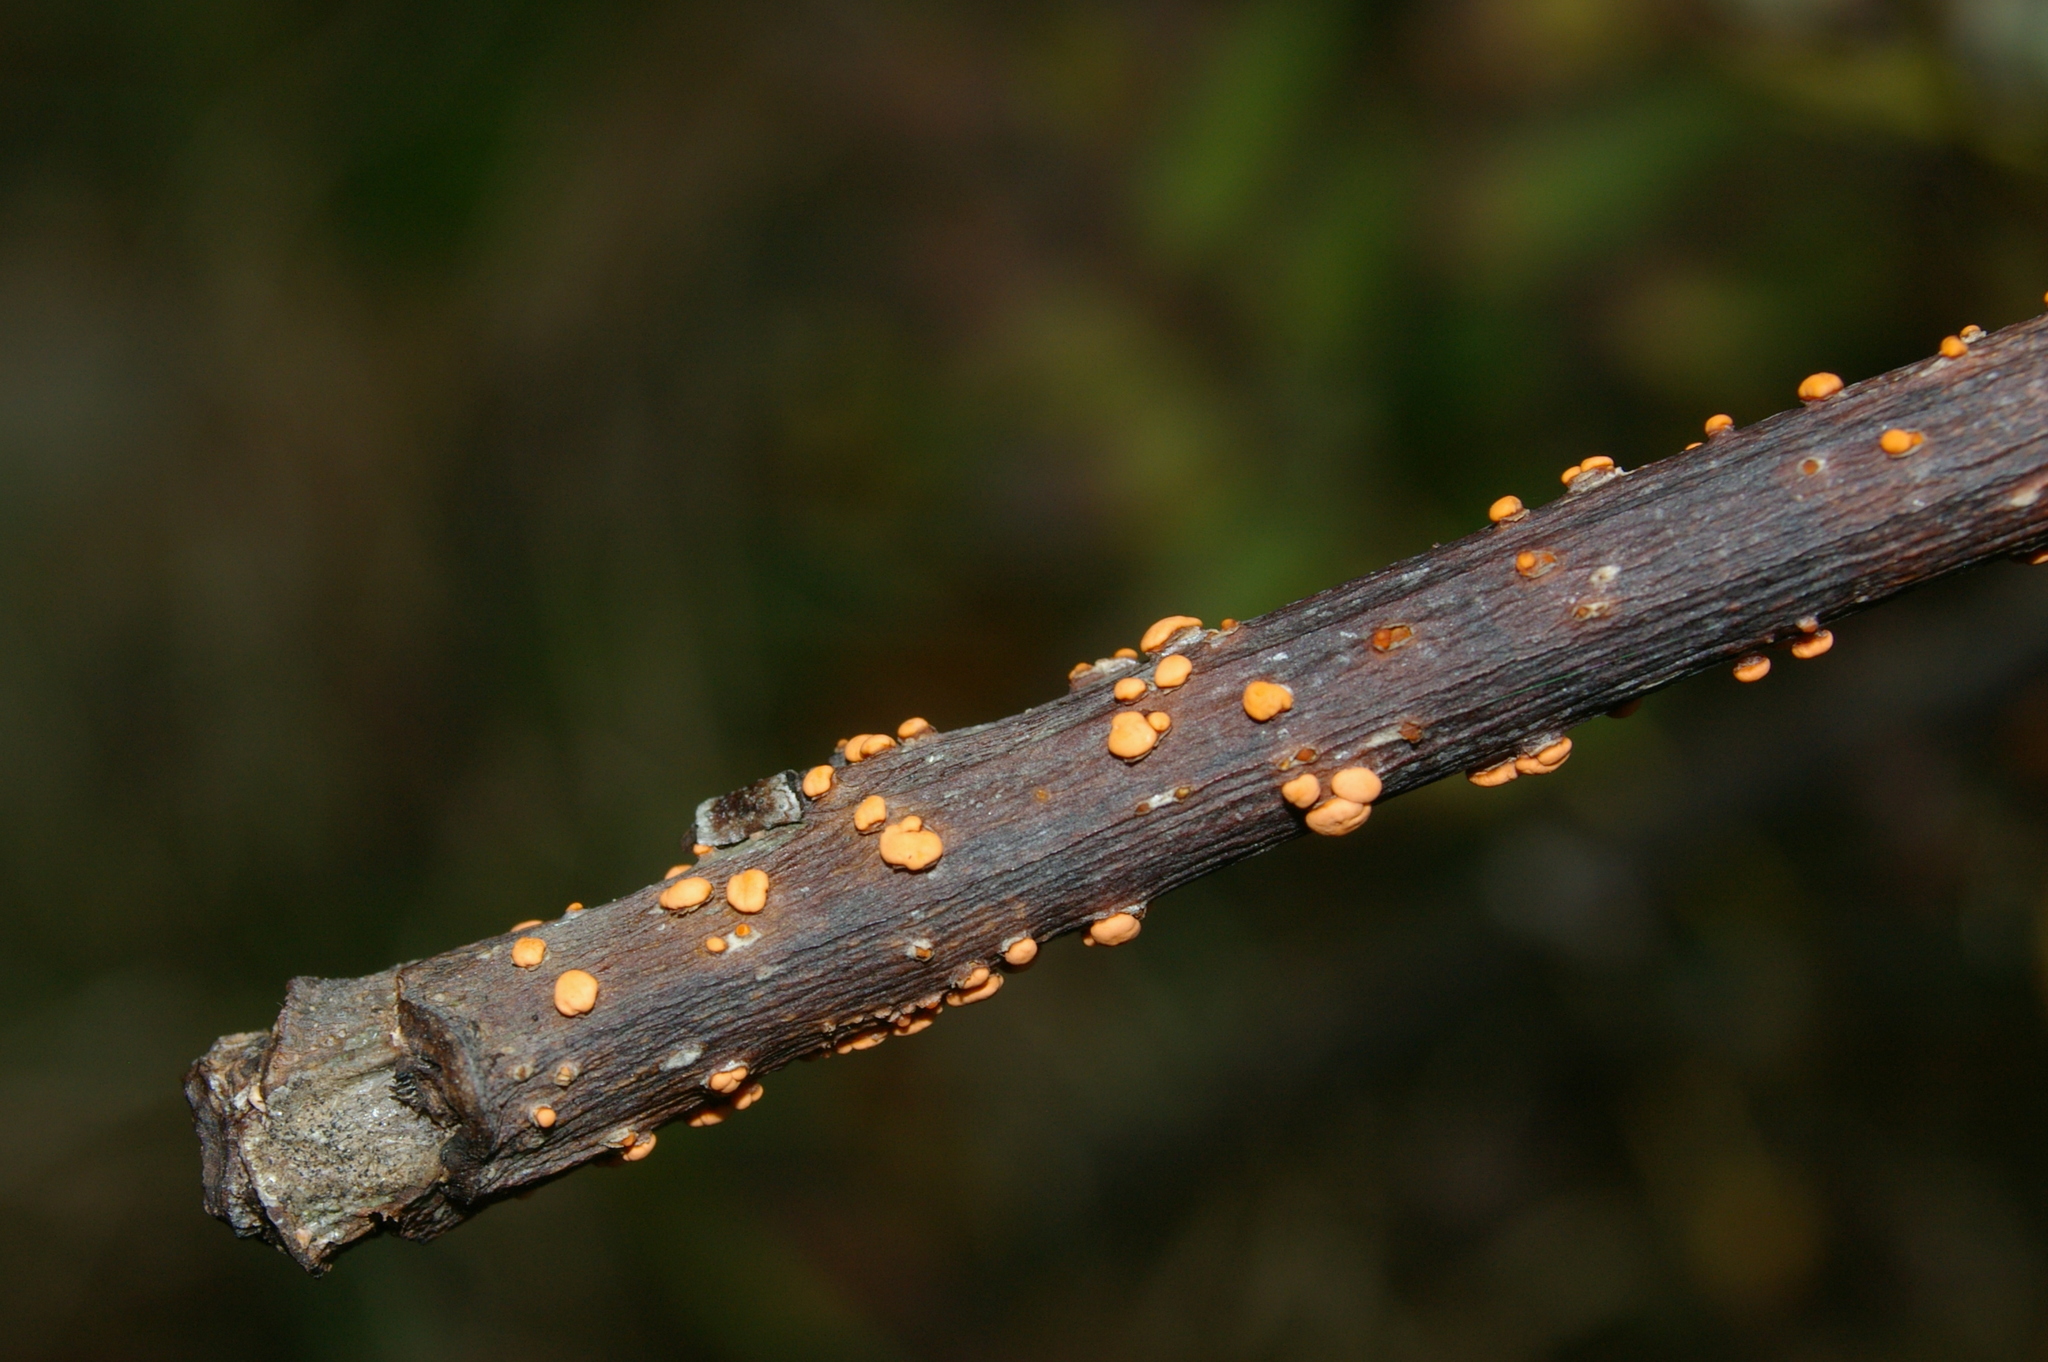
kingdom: Fungi
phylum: Ascomycota
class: Sordariomycetes
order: Hypocreales
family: Nectriaceae
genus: Nectria
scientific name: Nectria cinnabarina
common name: Coral spot
